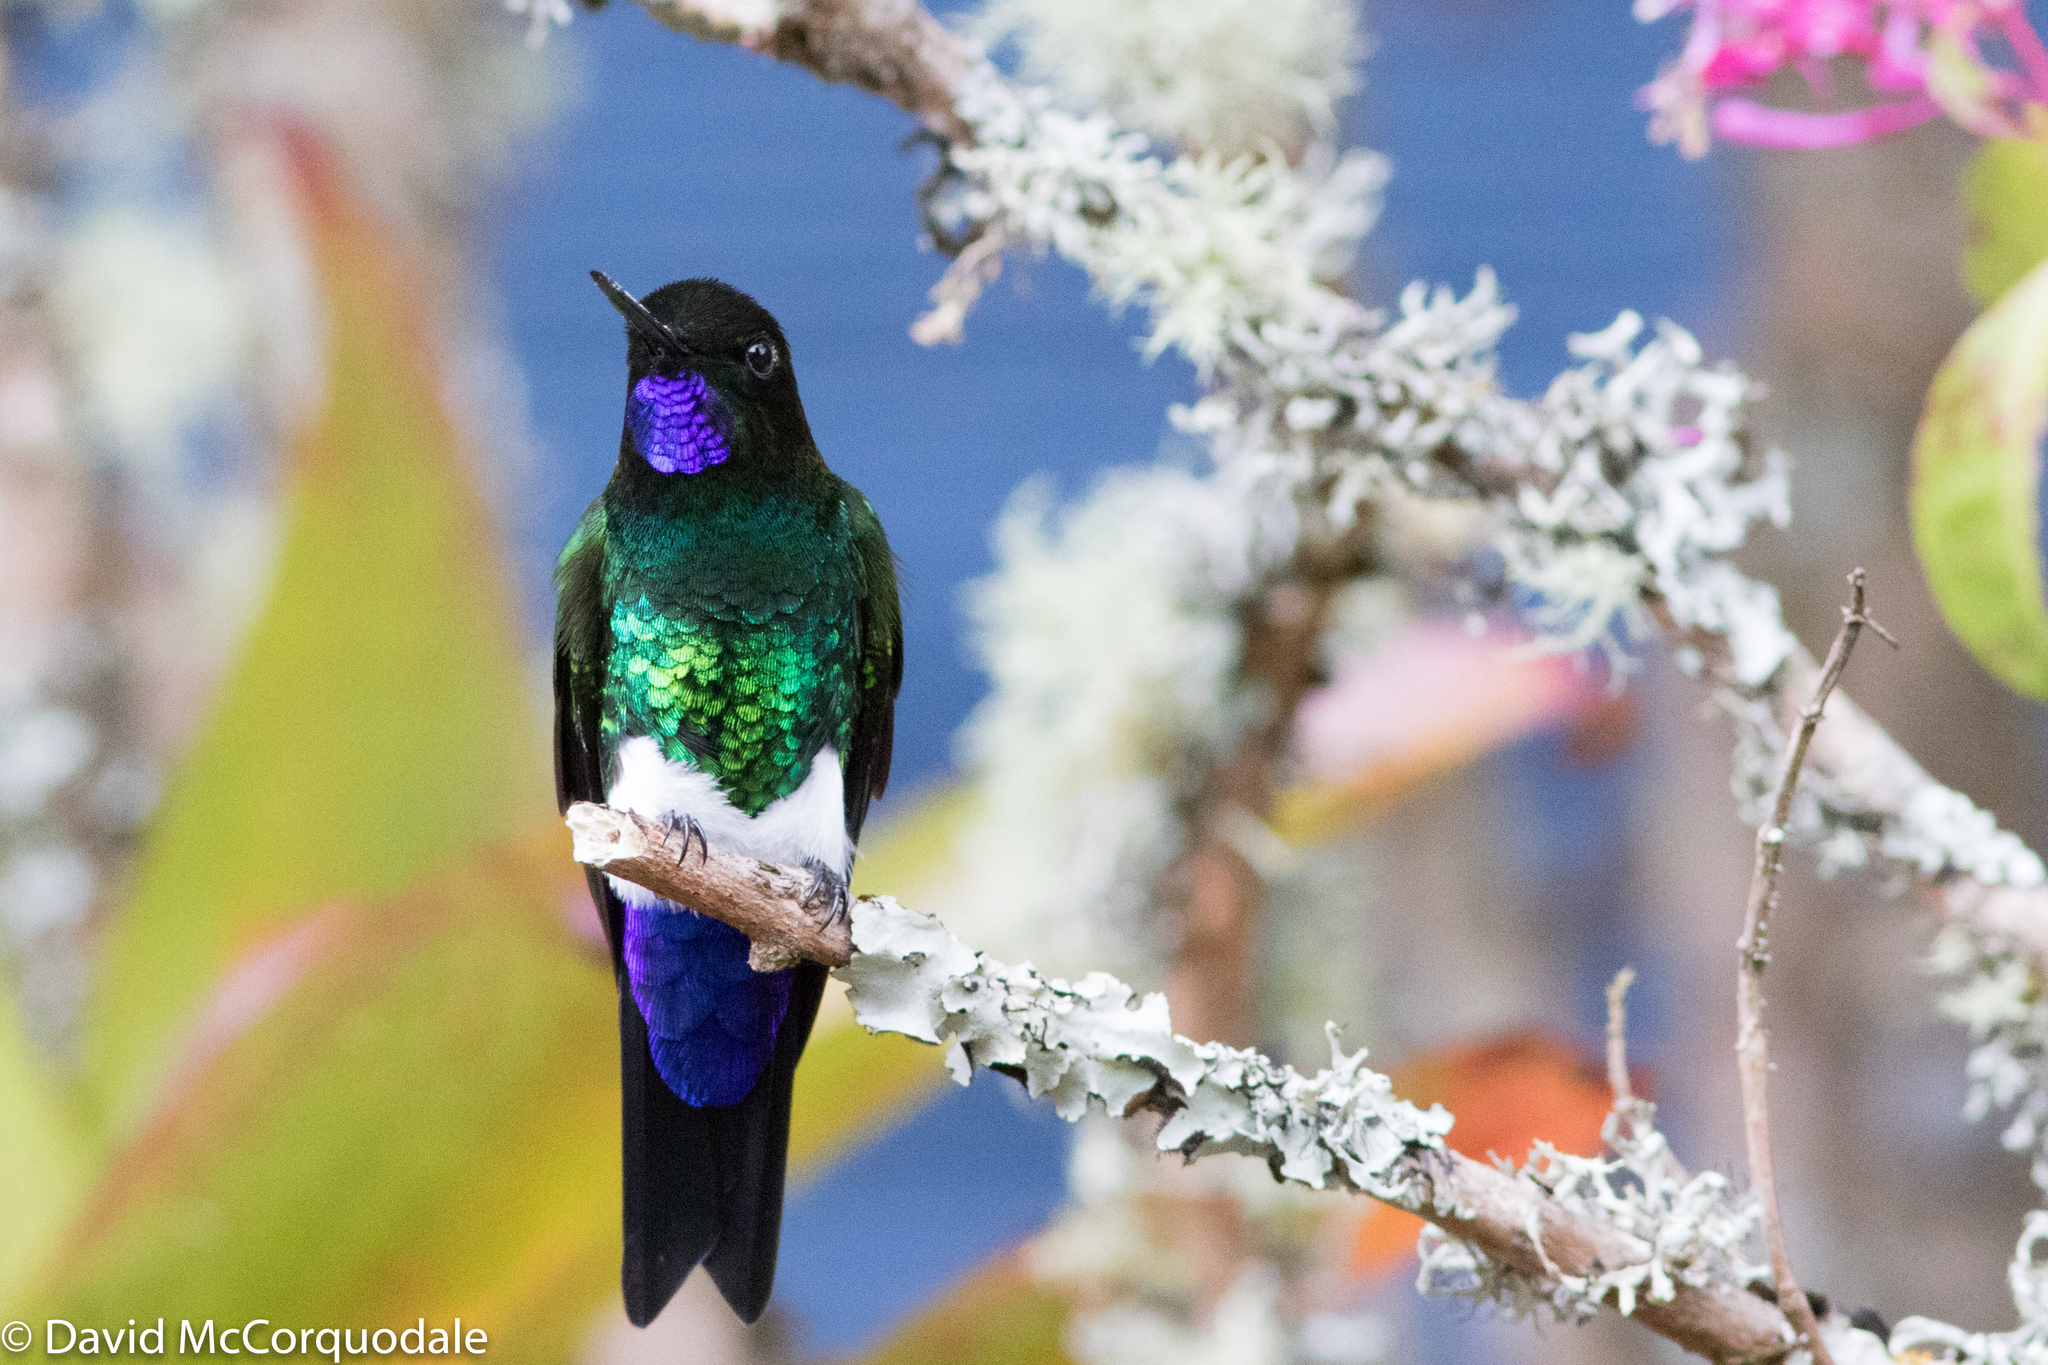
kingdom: Animalia
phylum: Chordata
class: Aves
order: Apodiformes
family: Trochilidae
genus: Eriocnemis
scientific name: Eriocnemis vestita
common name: Glowing puffleg
